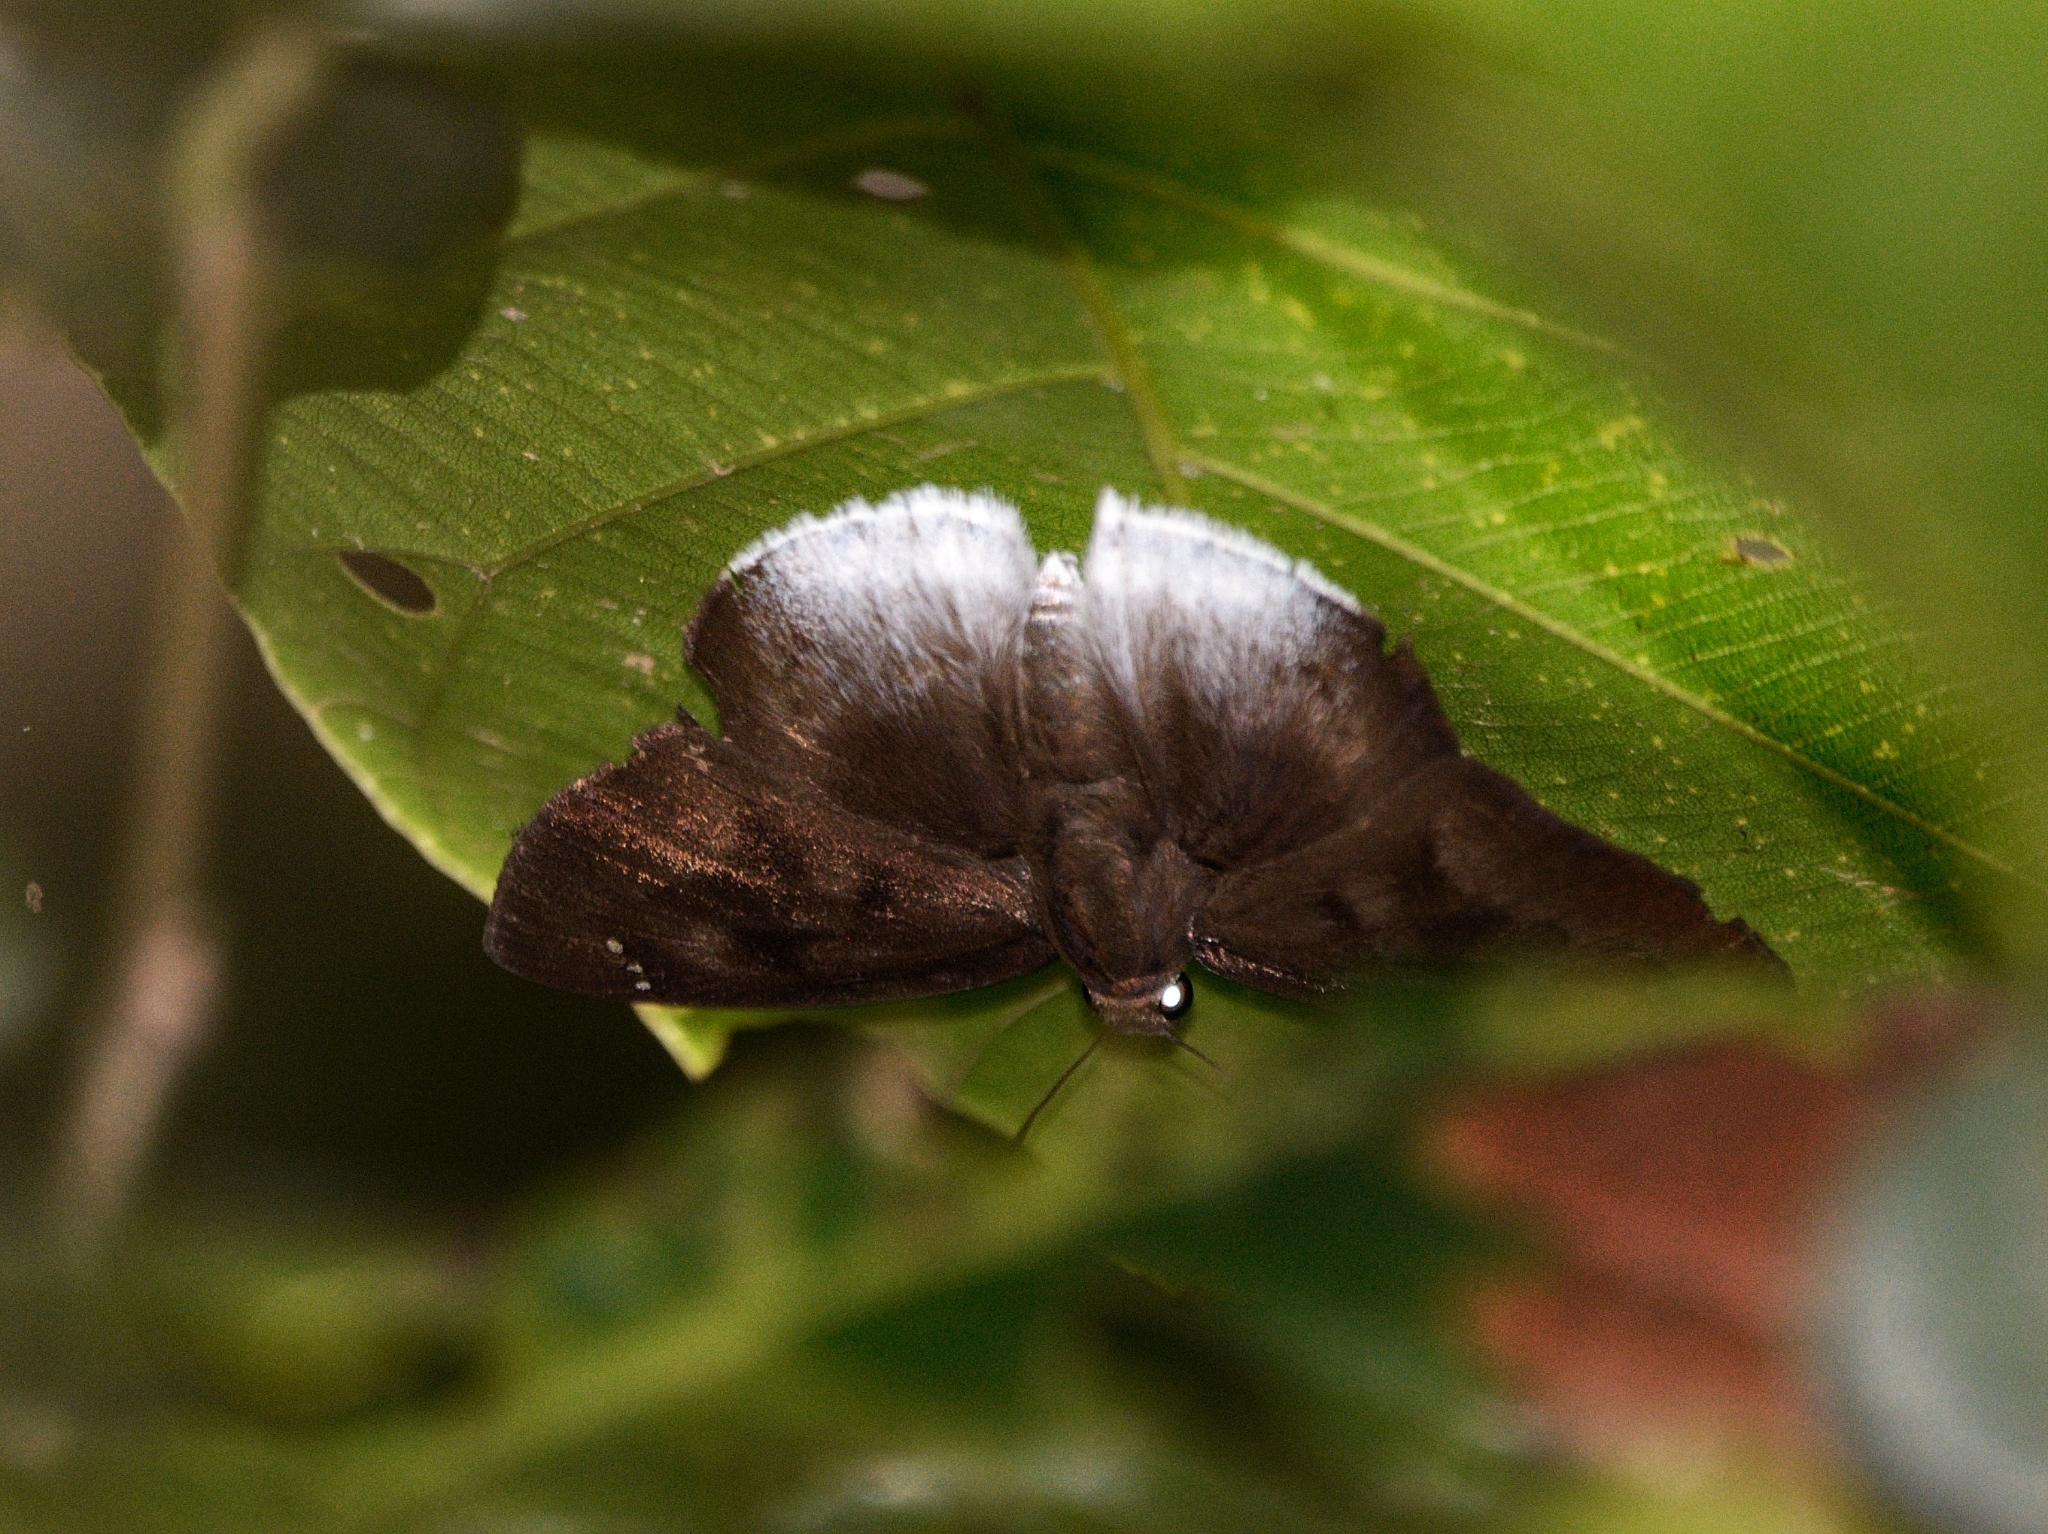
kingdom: Animalia
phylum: Arthropoda
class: Insecta
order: Lepidoptera
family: Hesperiidae
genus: Tagiades
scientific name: Tagiades gana
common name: Suffused snow flat
